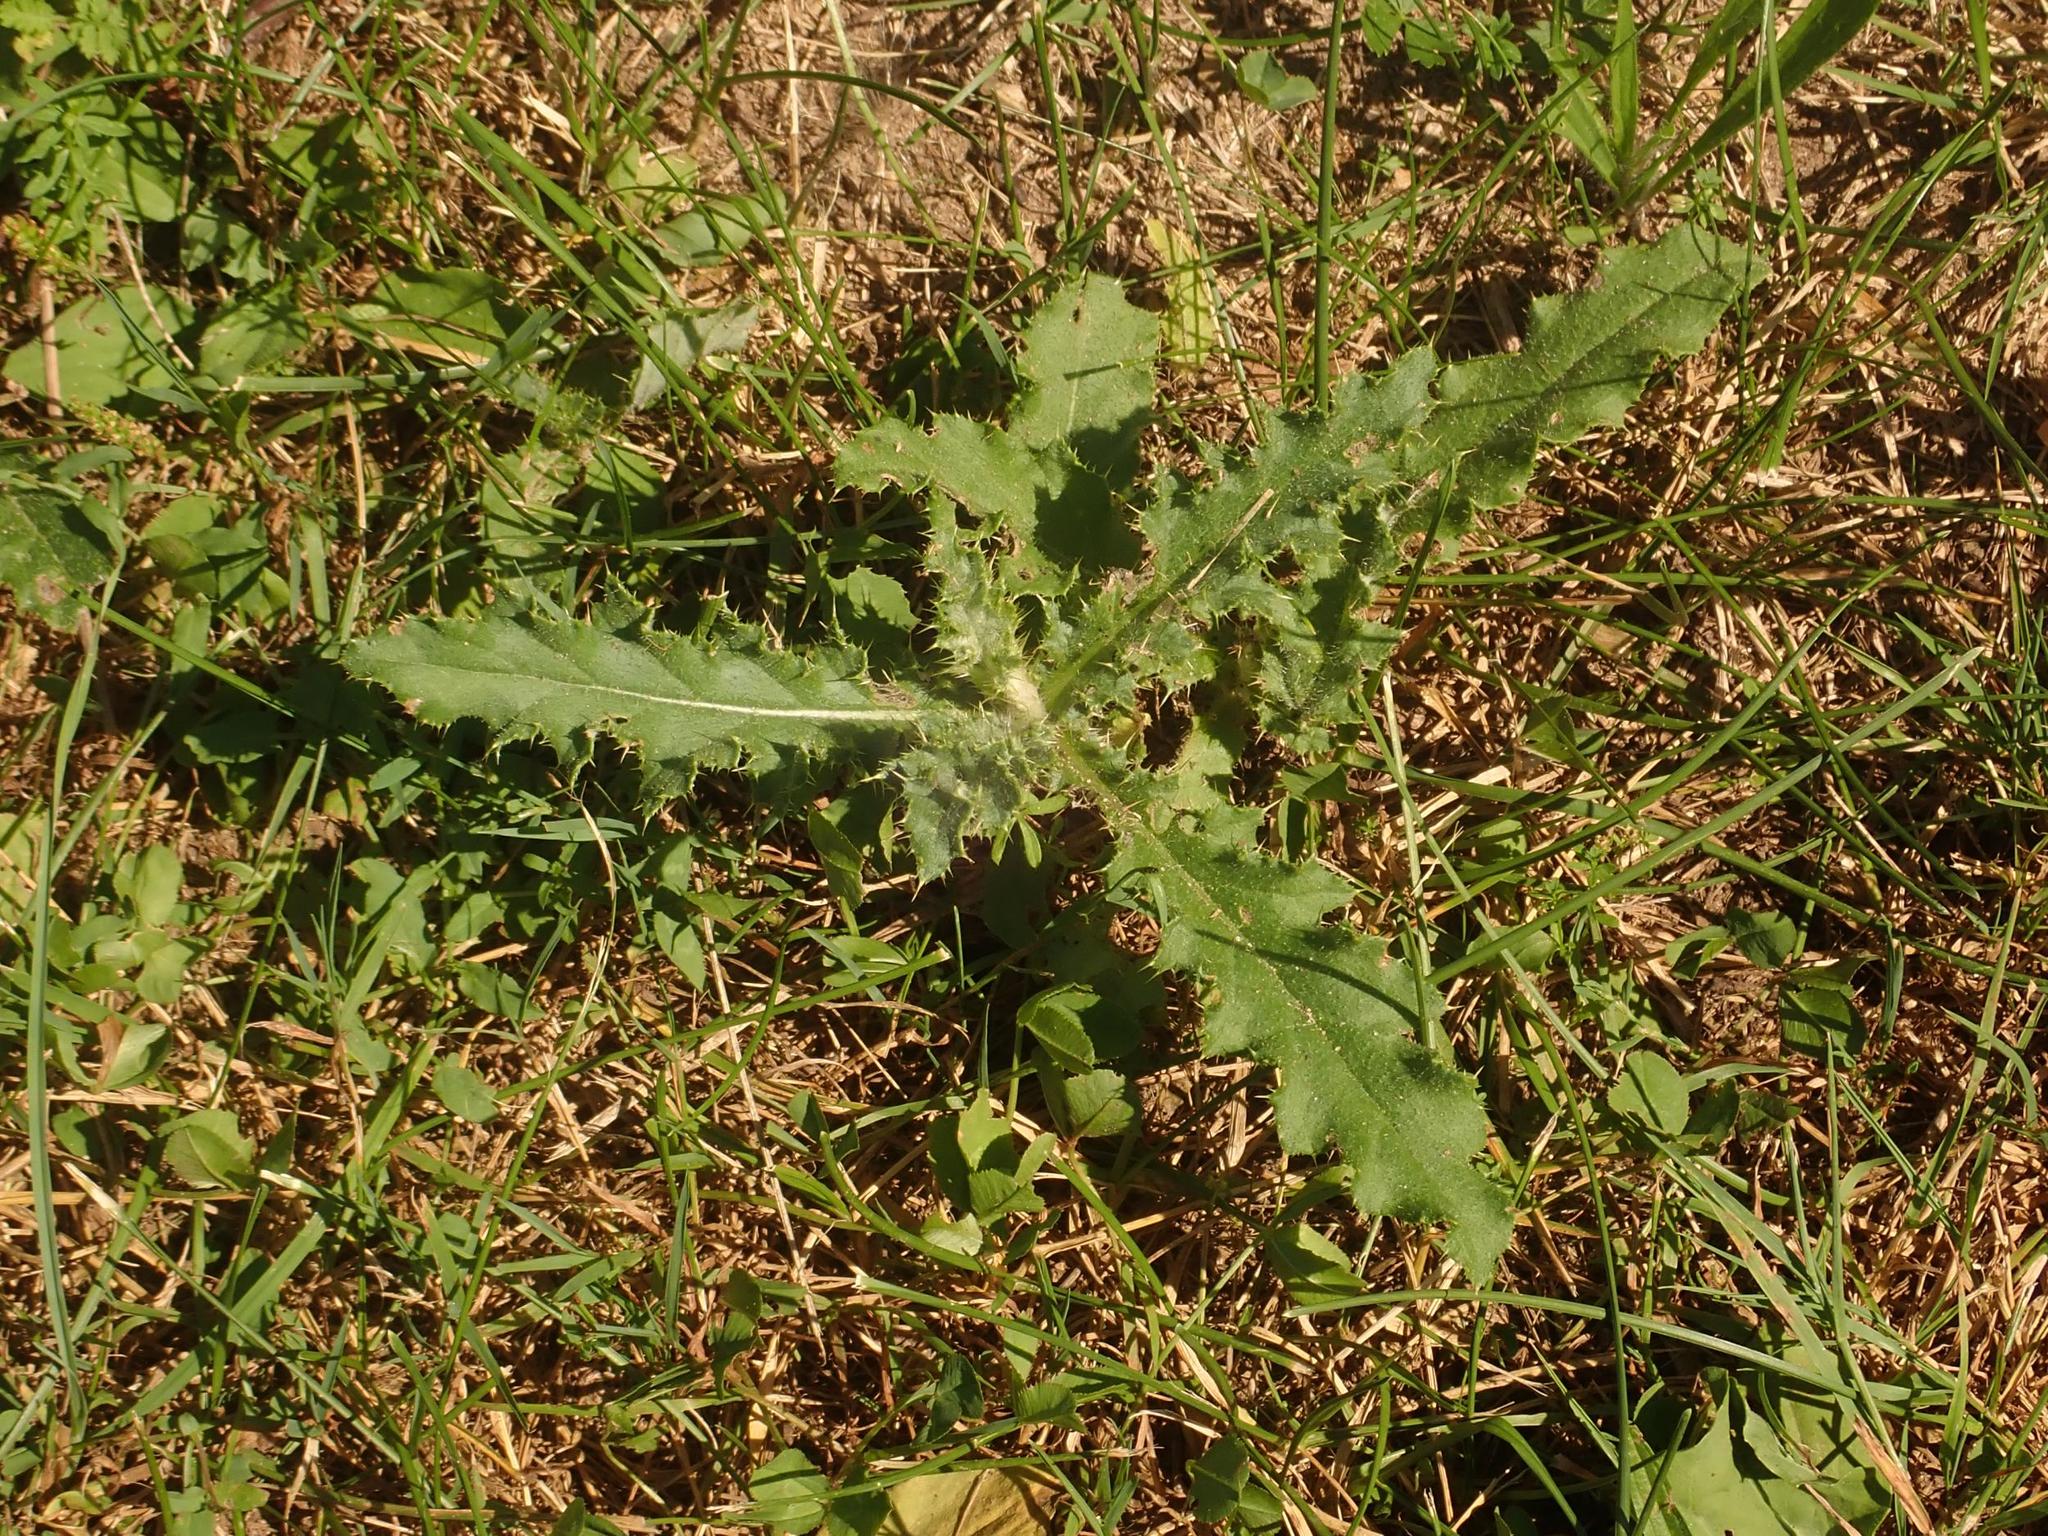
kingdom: Plantae
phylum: Tracheophyta
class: Magnoliopsida
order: Asterales
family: Asteraceae
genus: Cirsium
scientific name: Cirsium arvense
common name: Creeping thistle
